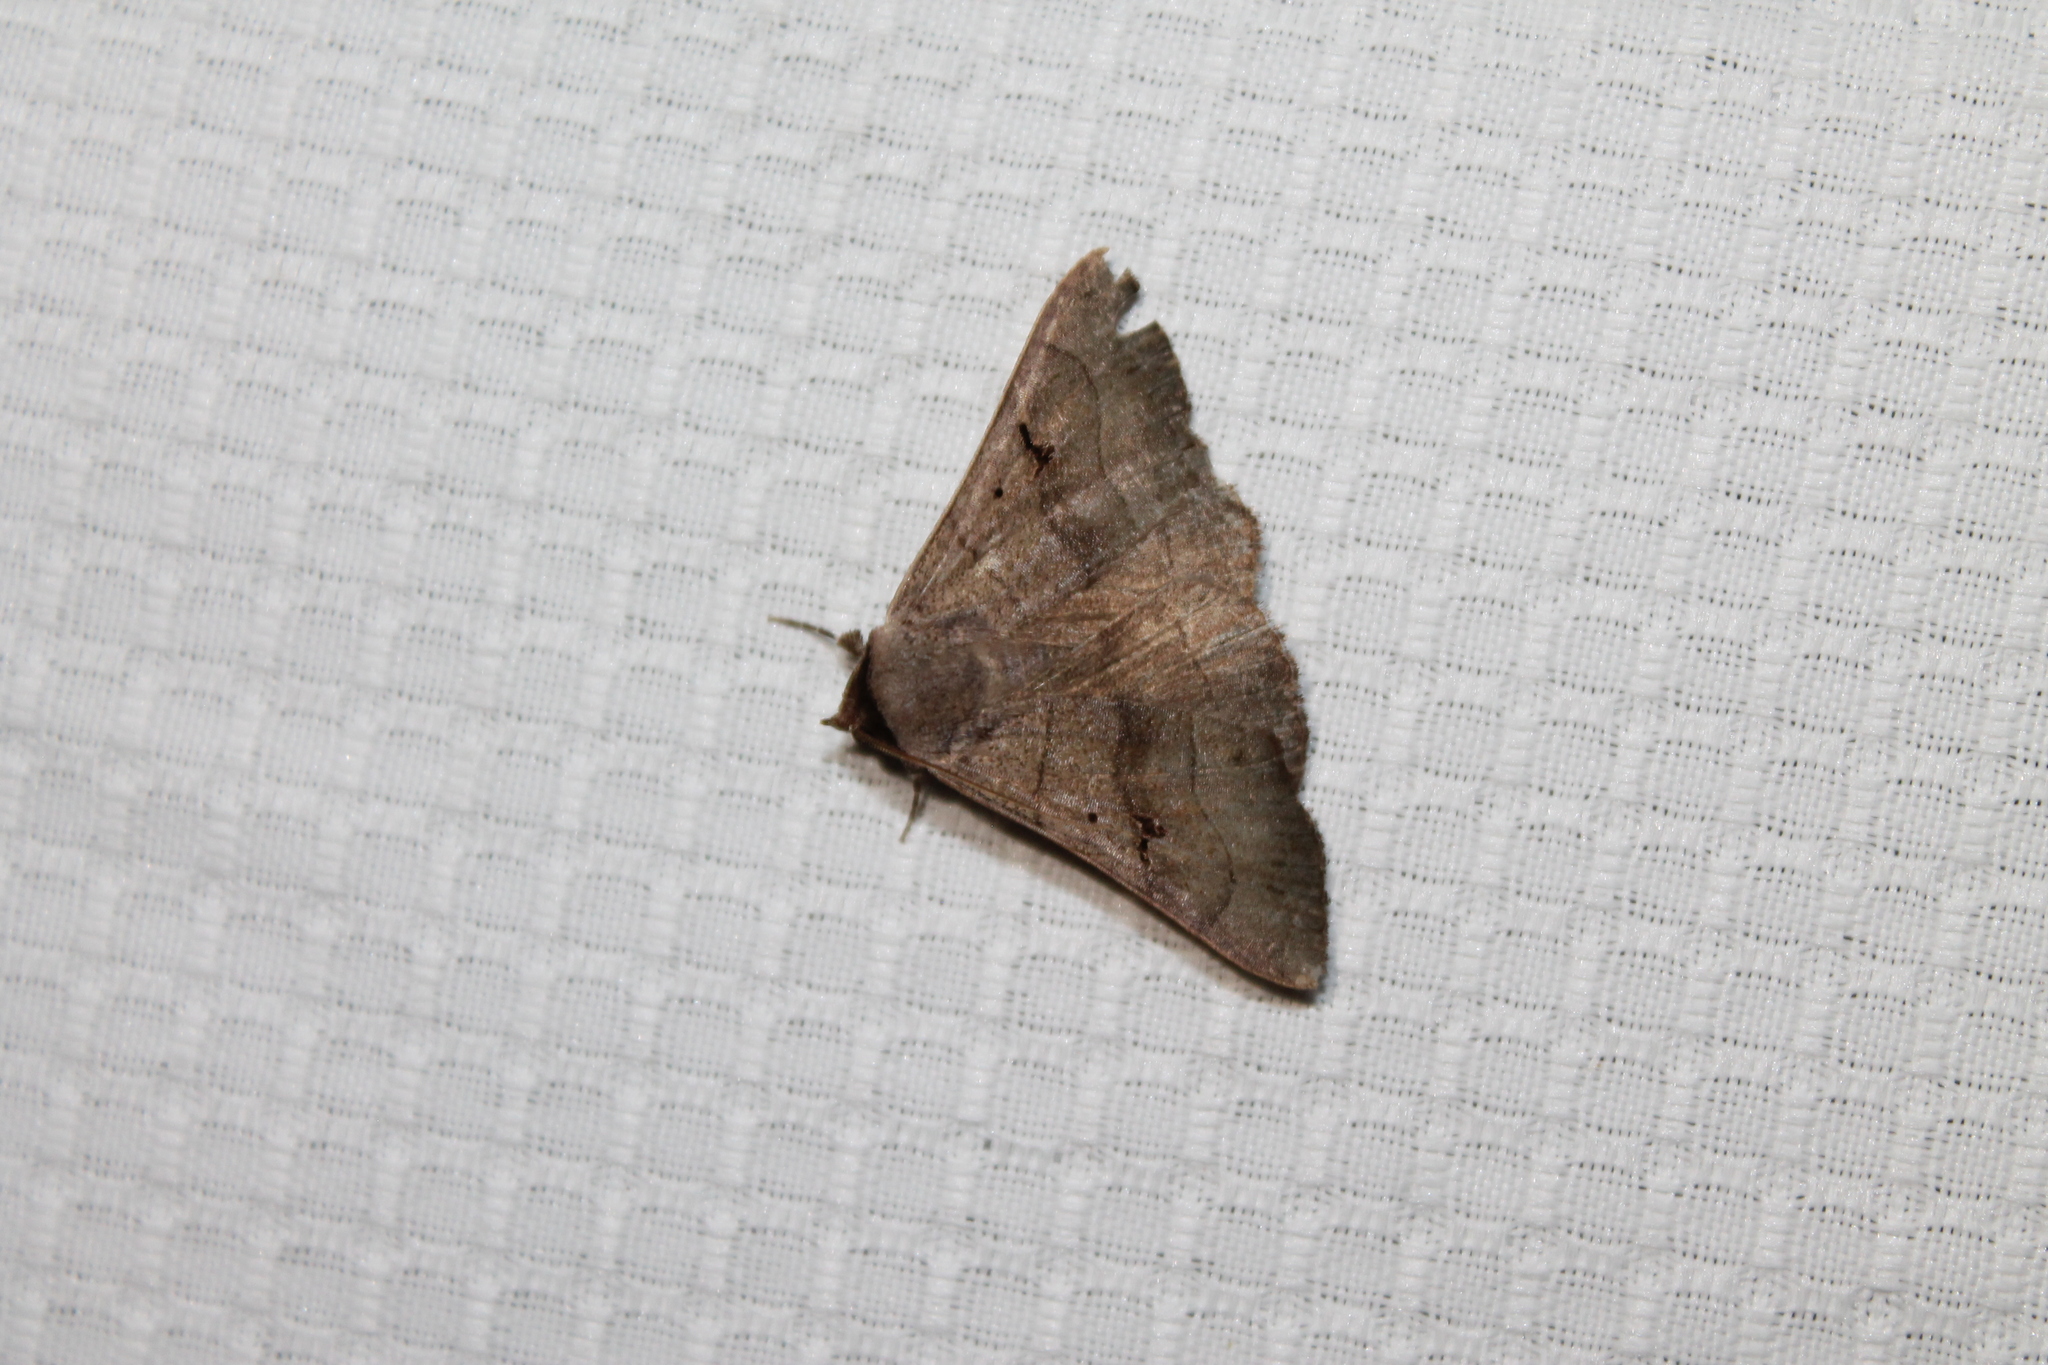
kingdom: Animalia
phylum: Arthropoda
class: Insecta
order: Lepidoptera
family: Erebidae
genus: Panopoda
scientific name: Panopoda carneicosta
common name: Brown panopoda moth
